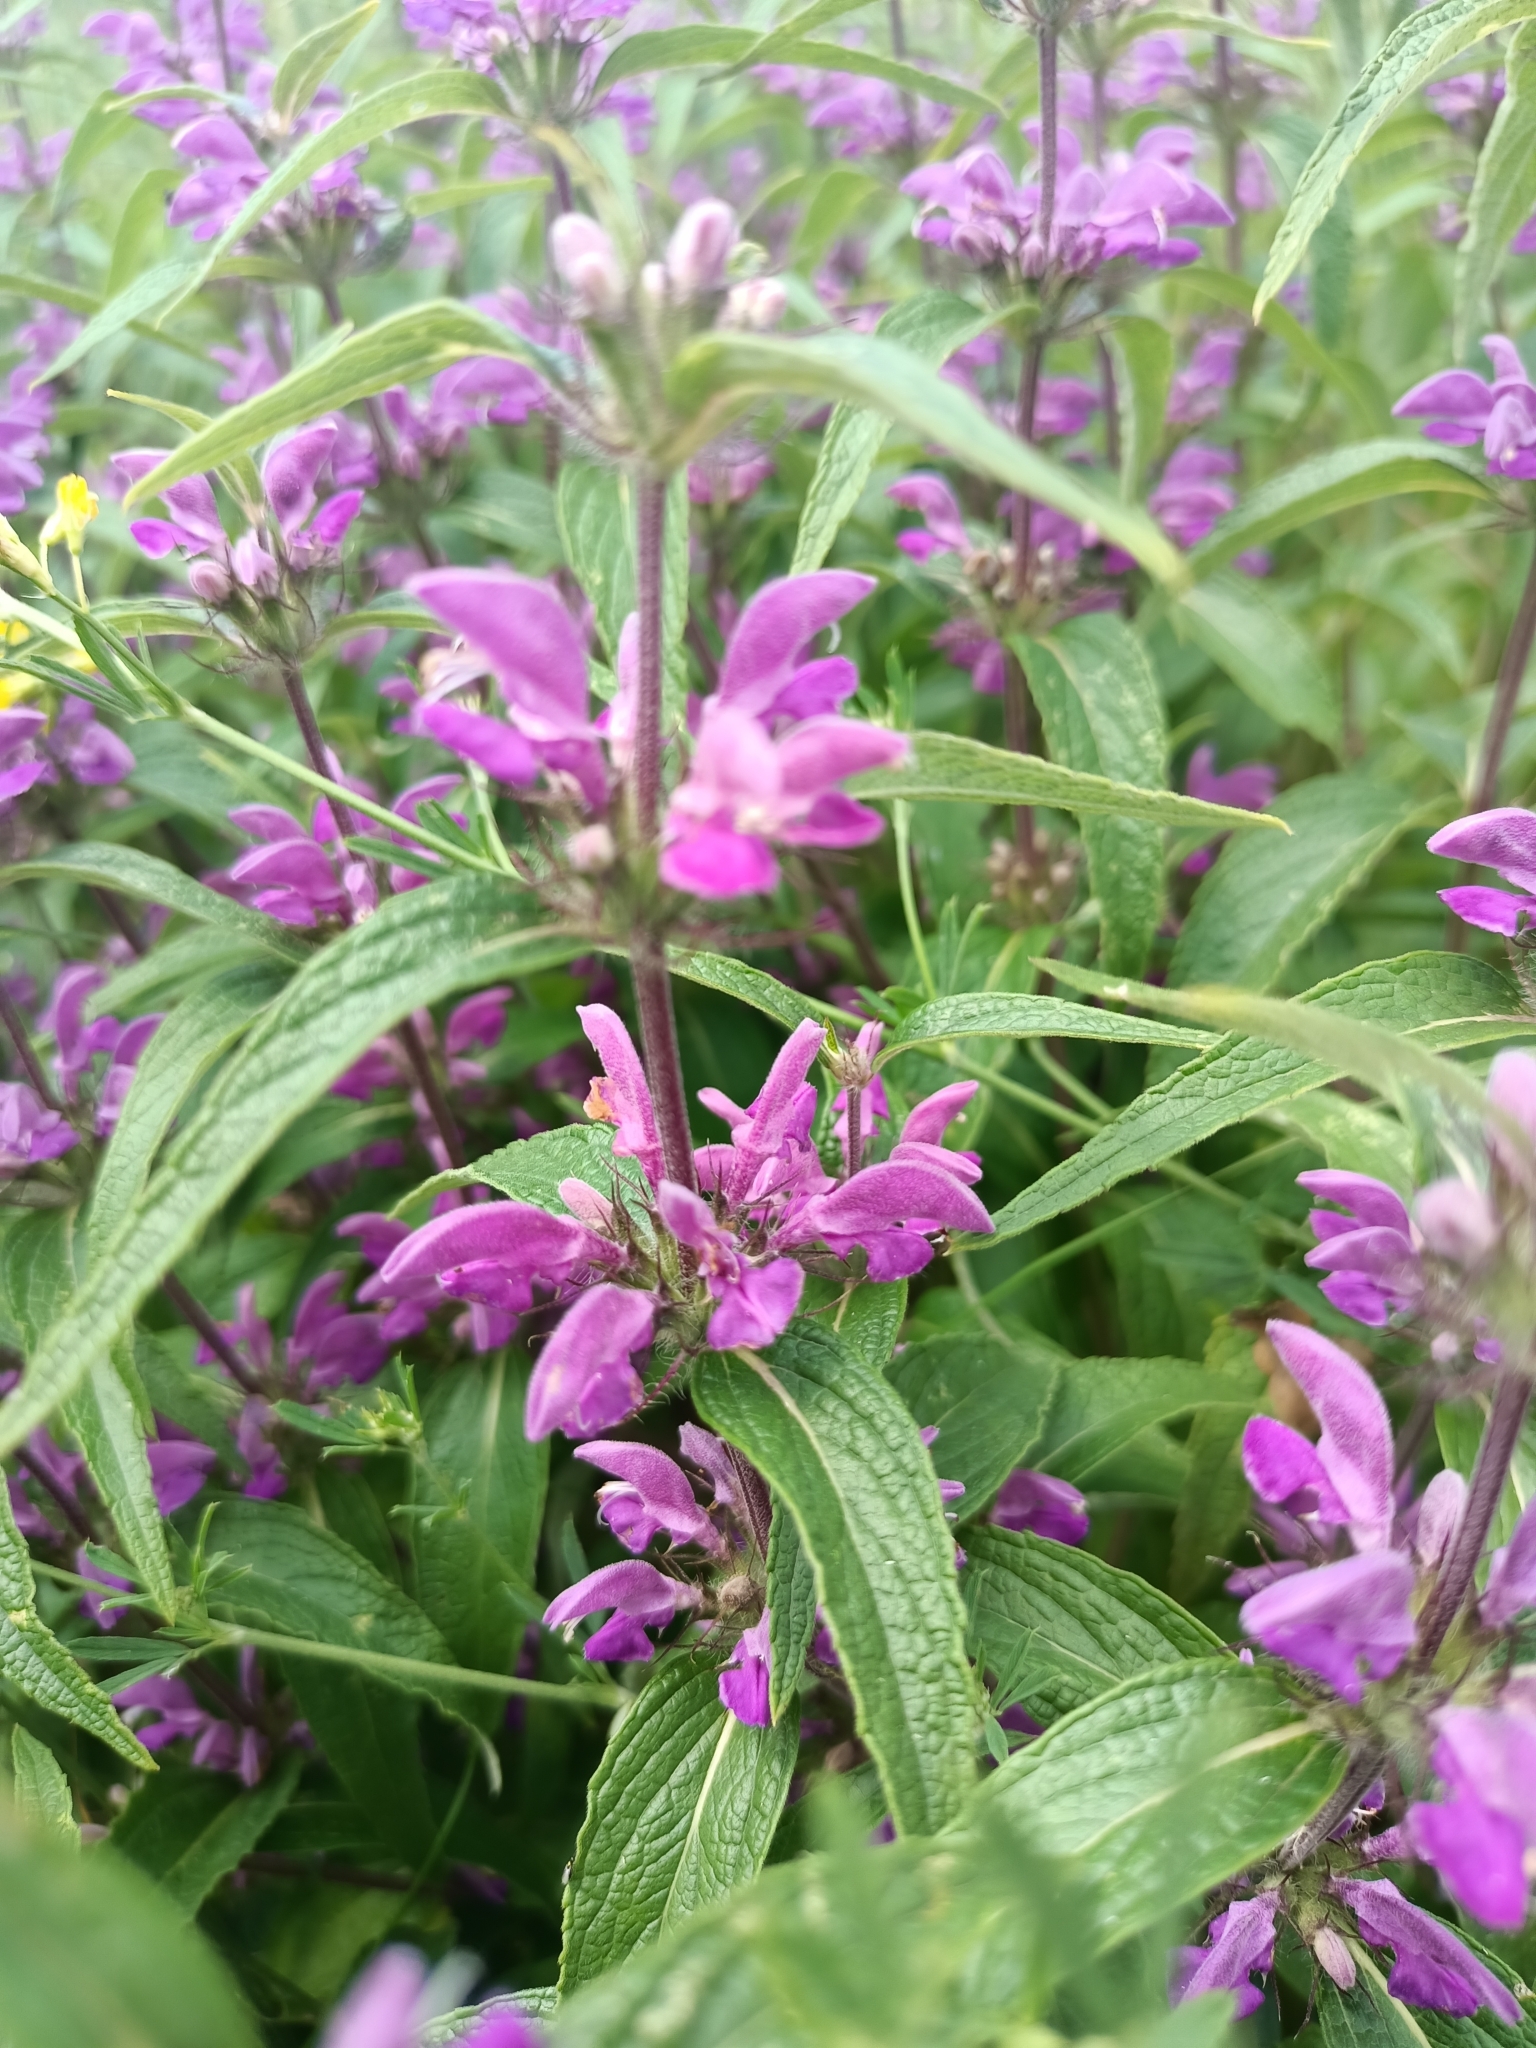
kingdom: Plantae
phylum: Tracheophyta
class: Magnoliopsida
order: Lamiales
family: Lamiaceae
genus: Phlomis
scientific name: Phlomis herba-venti
